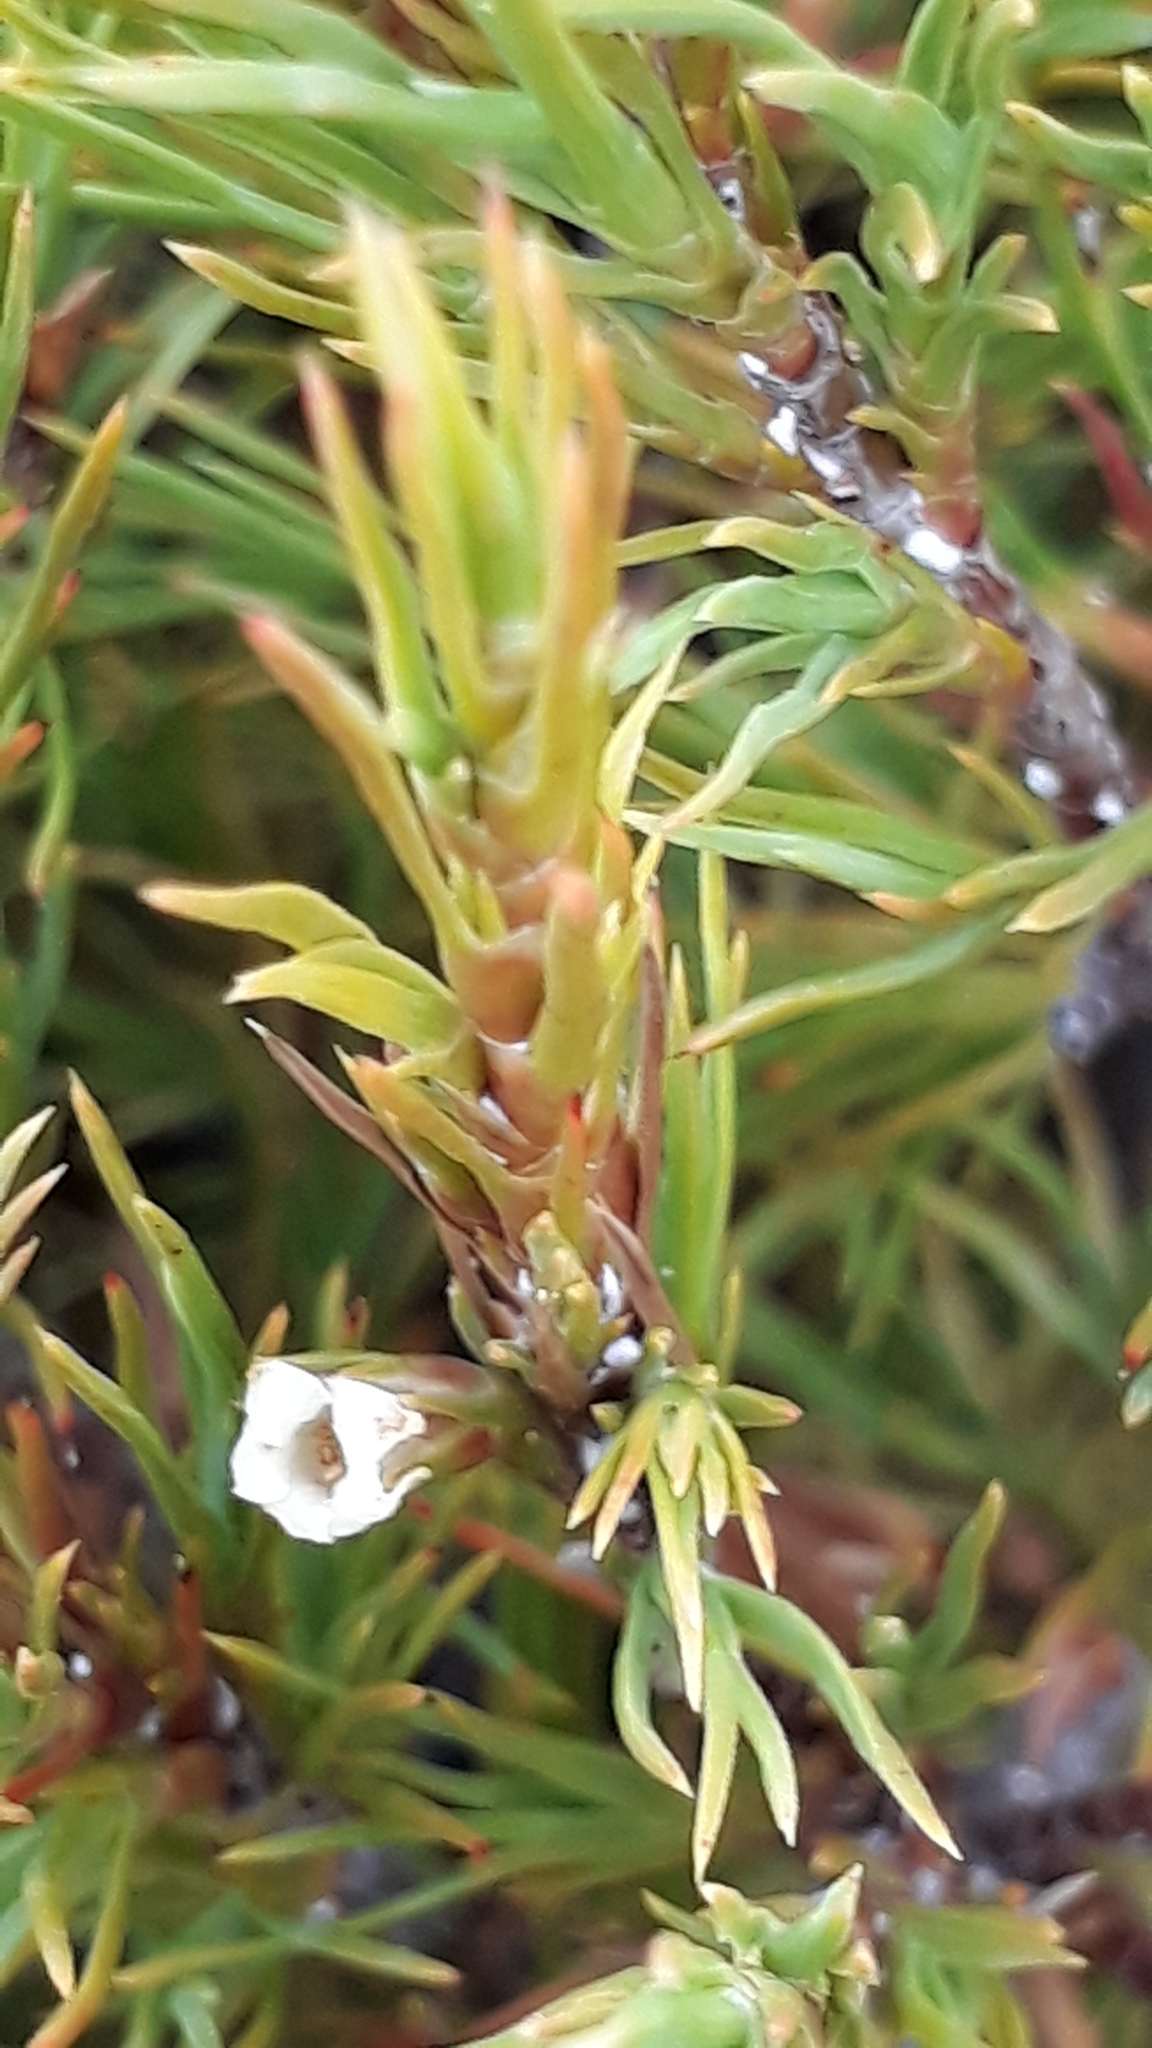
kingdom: Plantae
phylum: Tracheophyta
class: Magnoliopsida
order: Ericales
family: Ericaceae
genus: Dracophyllum
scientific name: Dracophyllum rosmarinifolium
